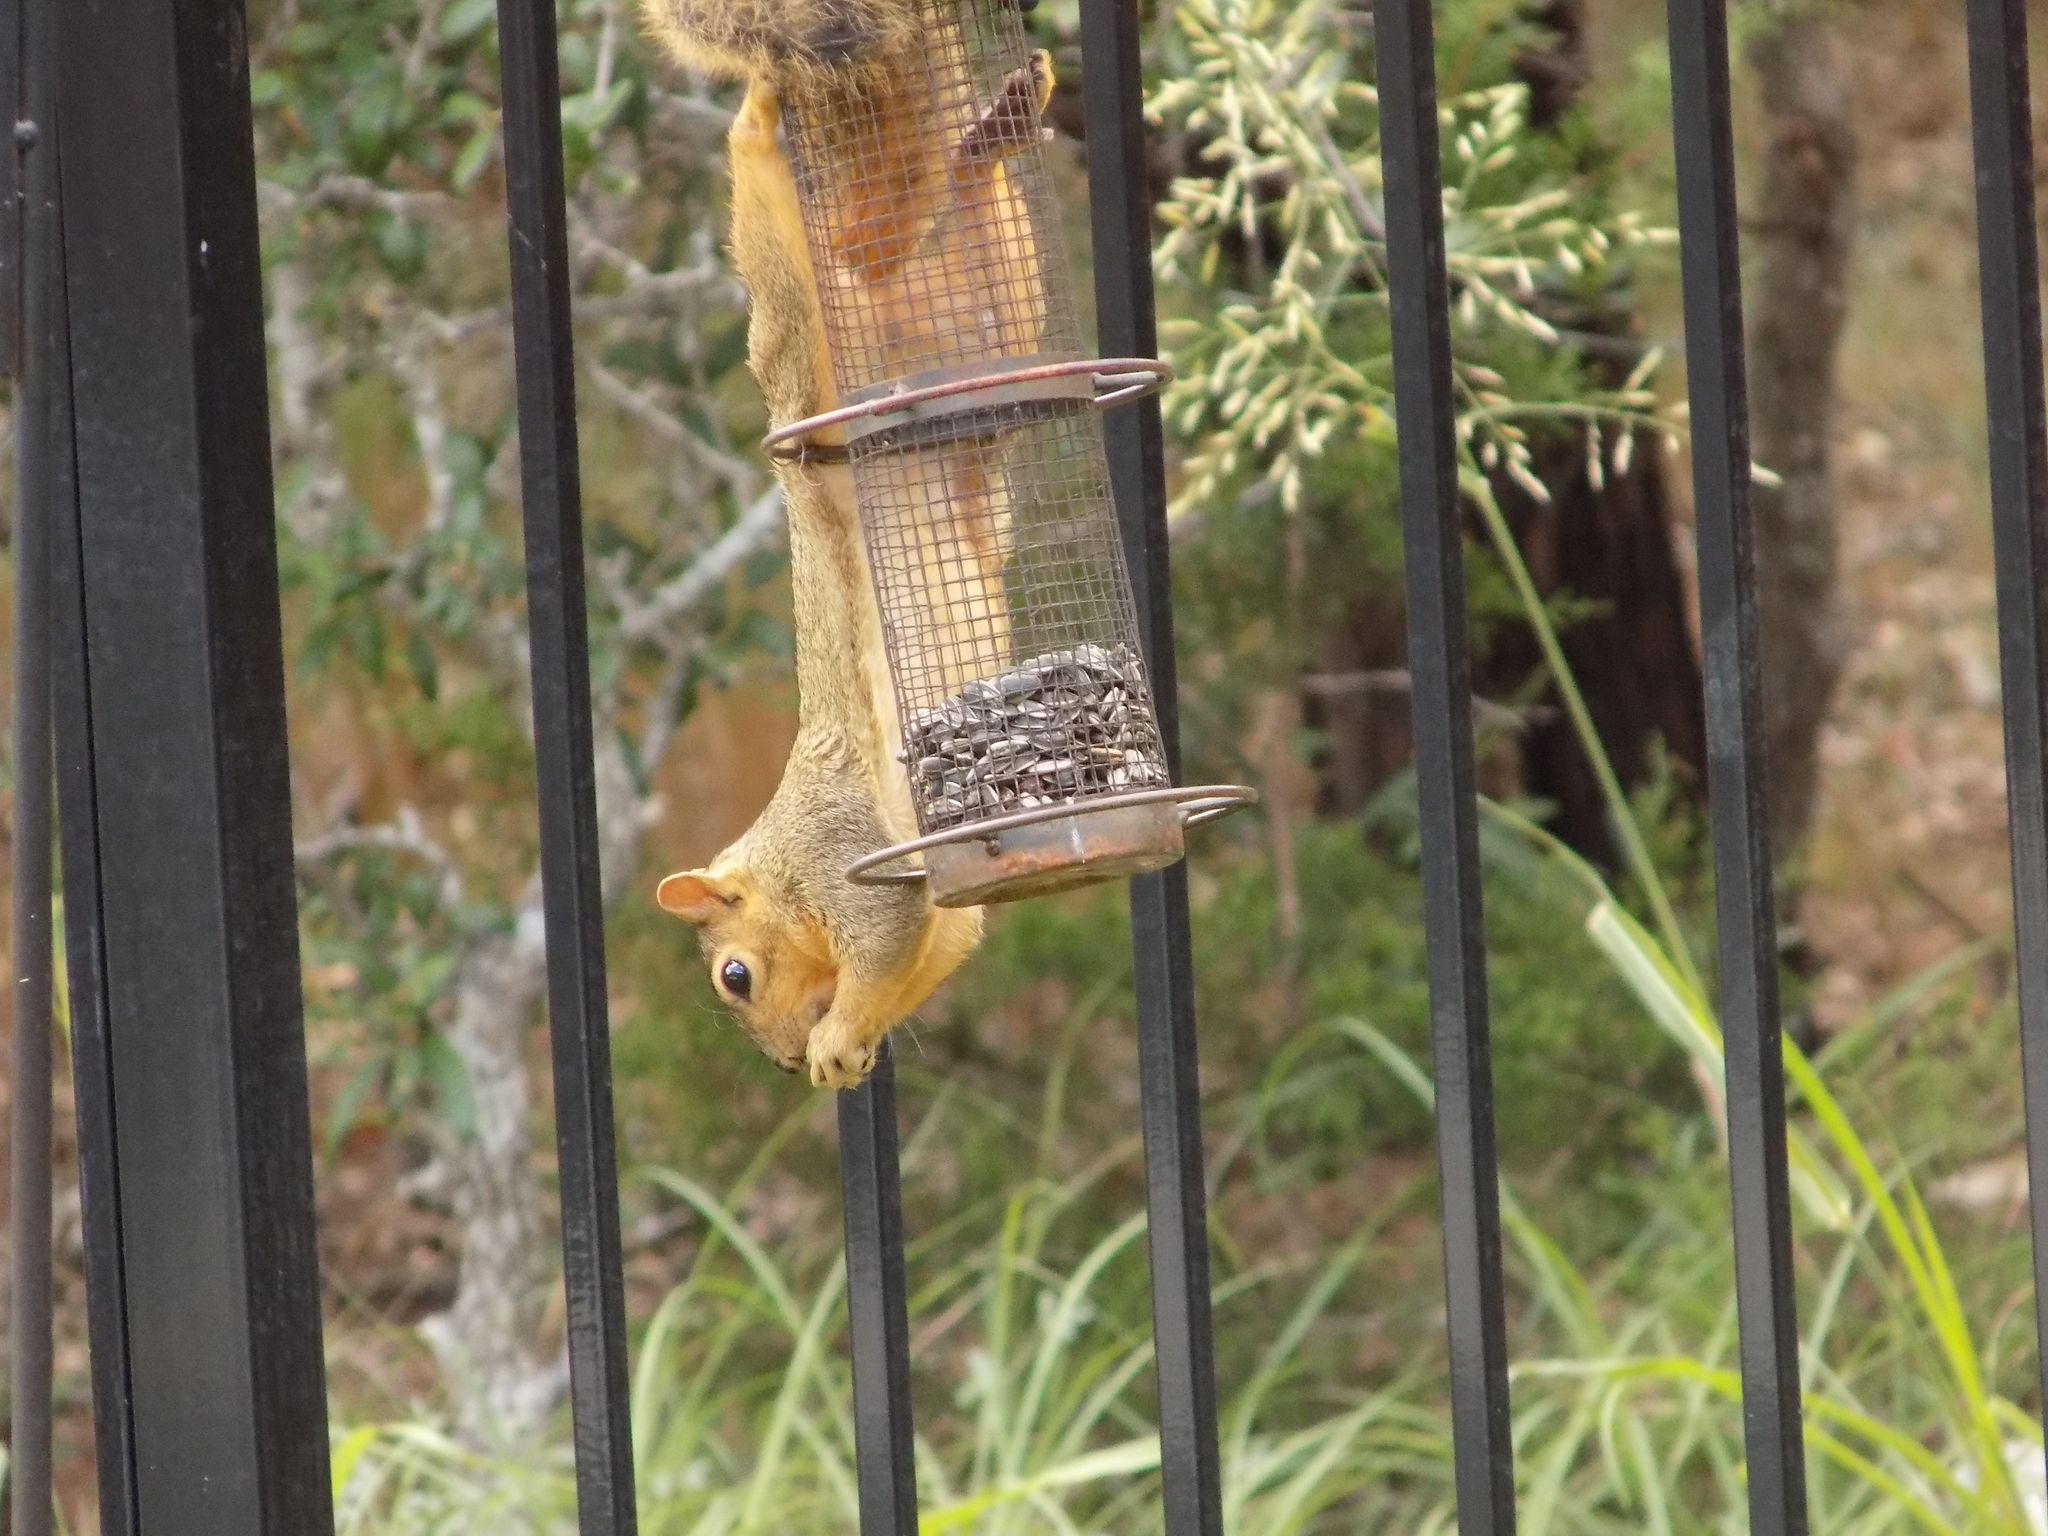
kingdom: Animalia
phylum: Chordata
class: Mammalia
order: Rodentia
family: Sciuridae
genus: Sciurus
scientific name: Sciurus niger
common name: Fox squirrel
